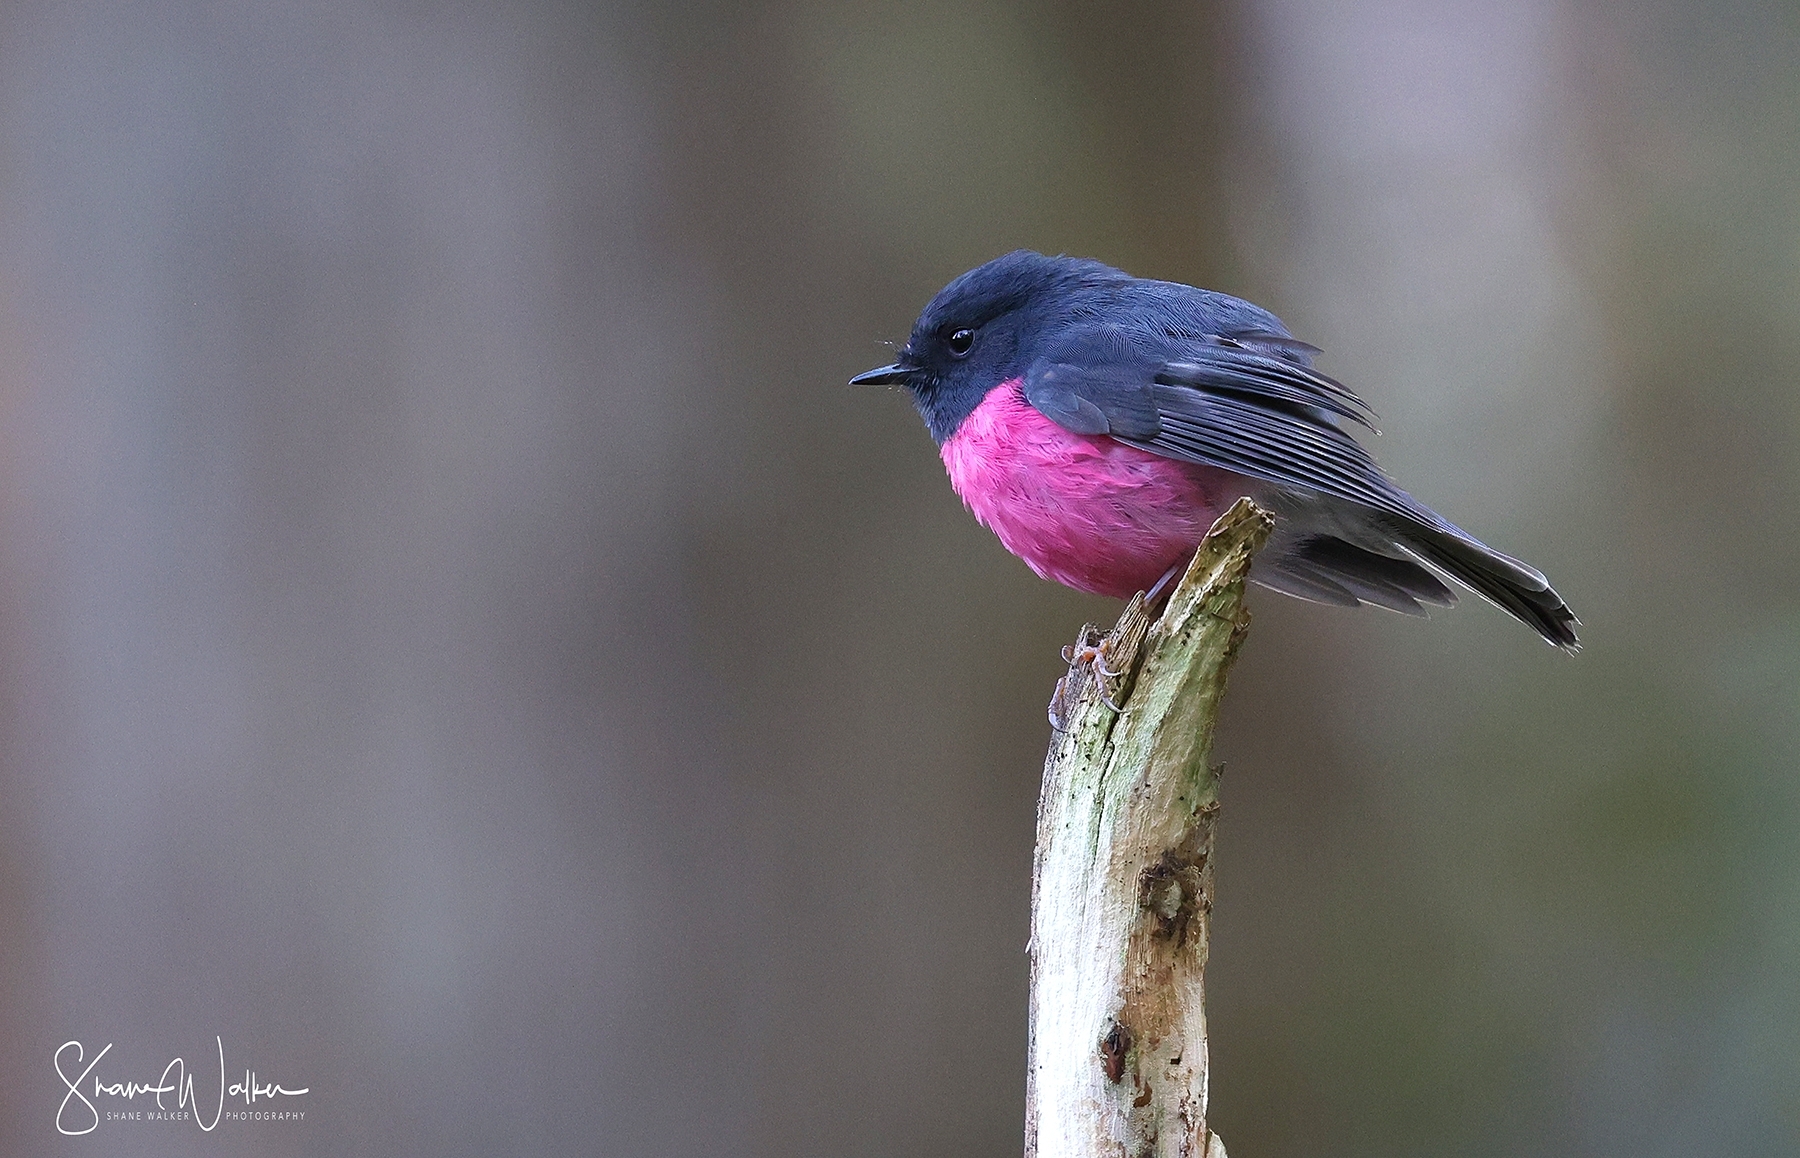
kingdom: Animalia
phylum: Chordata
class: Aves
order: Passeriformes
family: Petroicidae
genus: Petroica
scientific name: Petroica rodinogaster
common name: Pink robin
